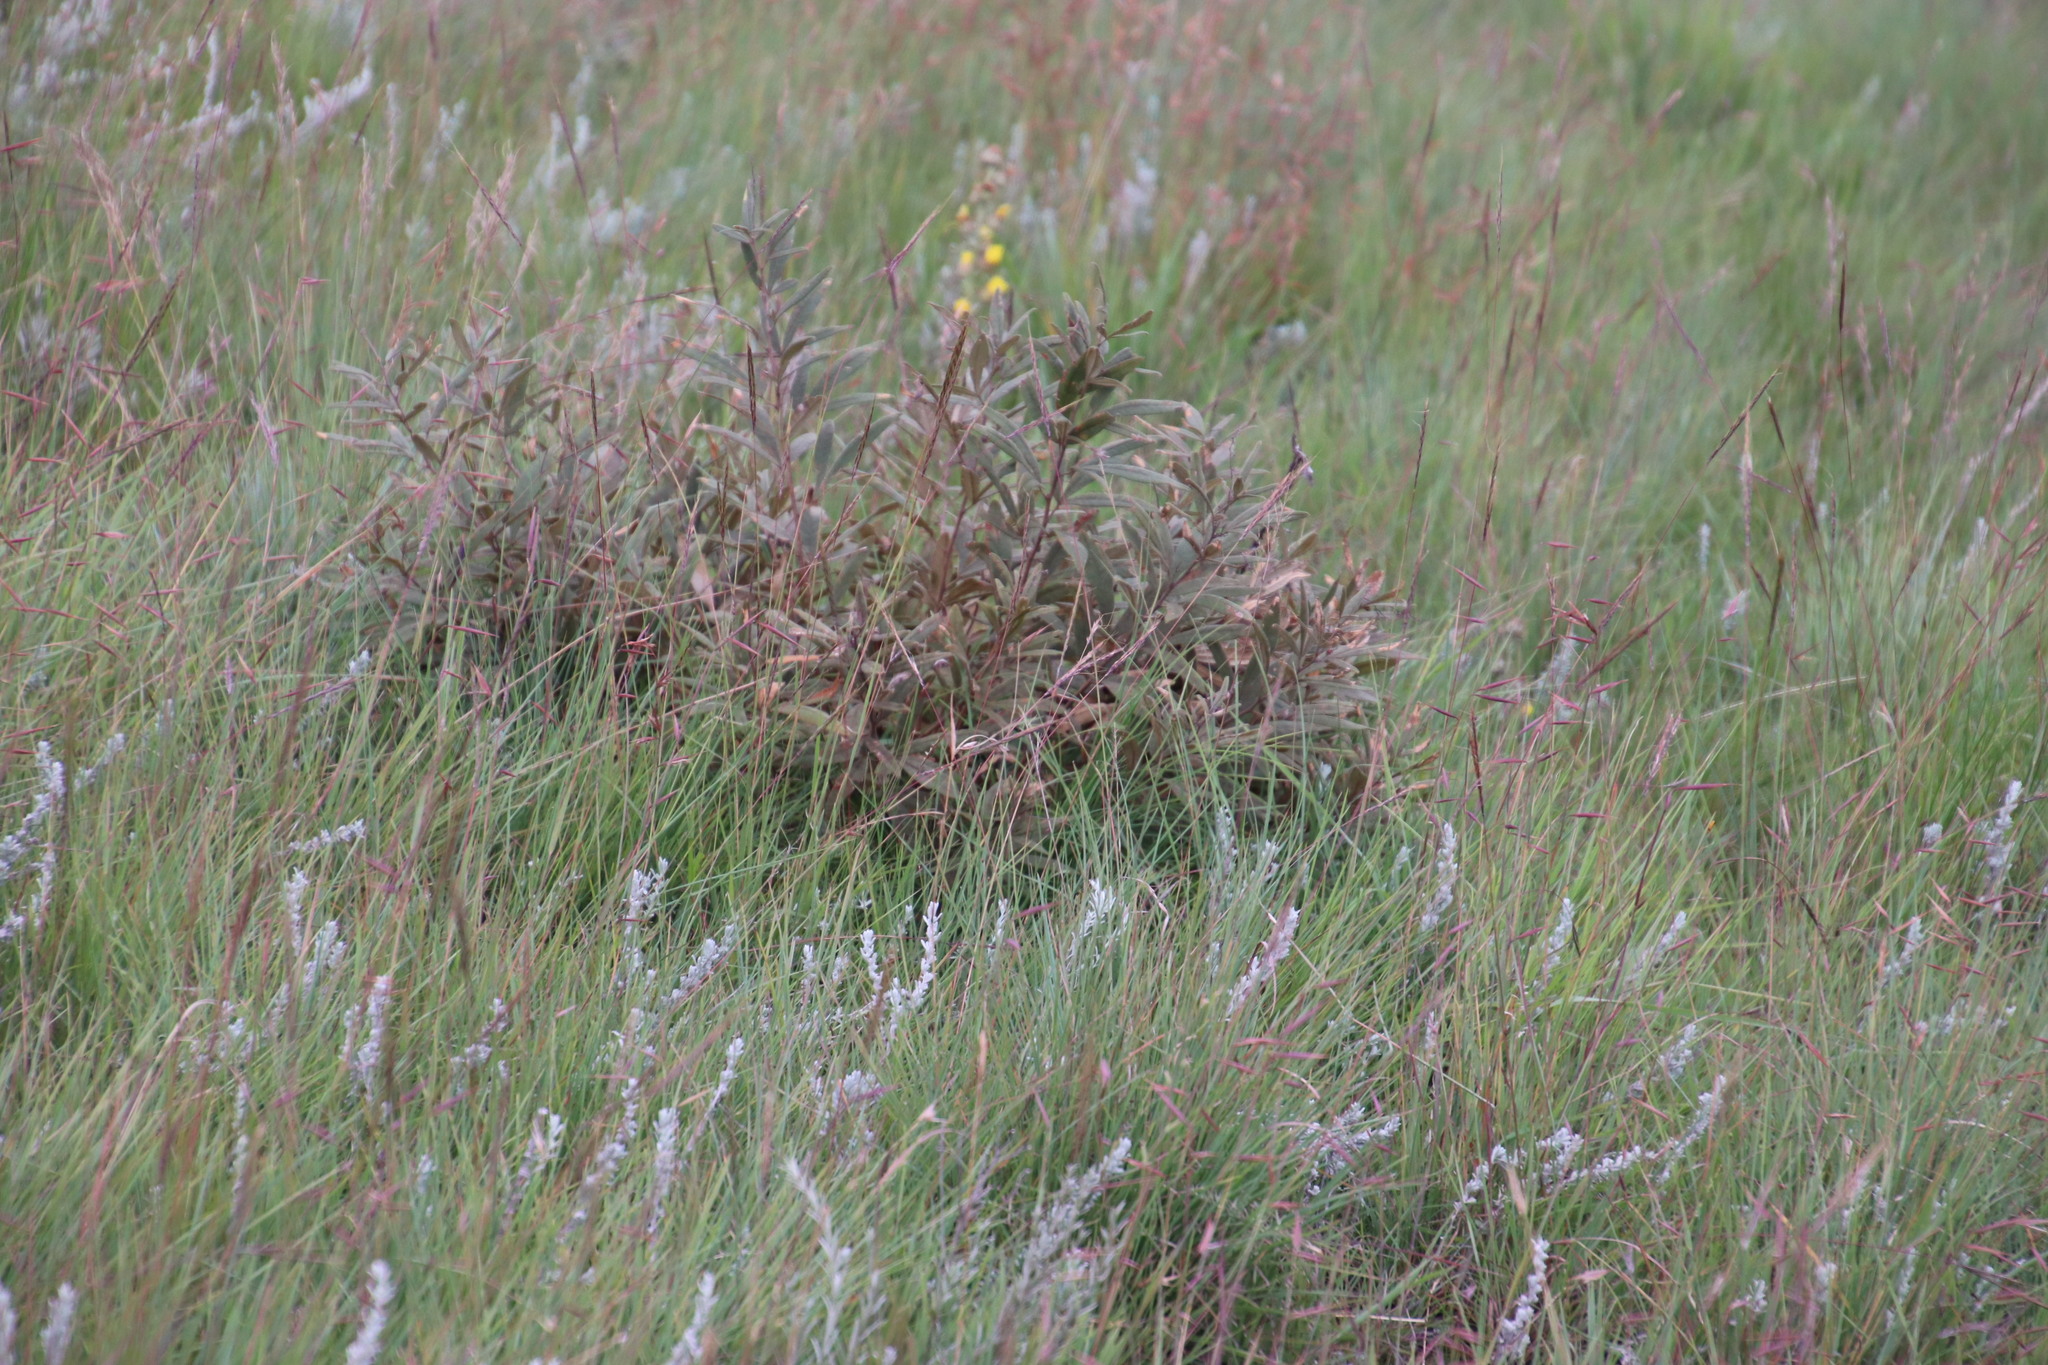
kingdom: Plantae
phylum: Tracheophyta
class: Magnoliopsida
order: Sapindales
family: Anacardiaceae
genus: Searsia
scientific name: Searsia discolor
